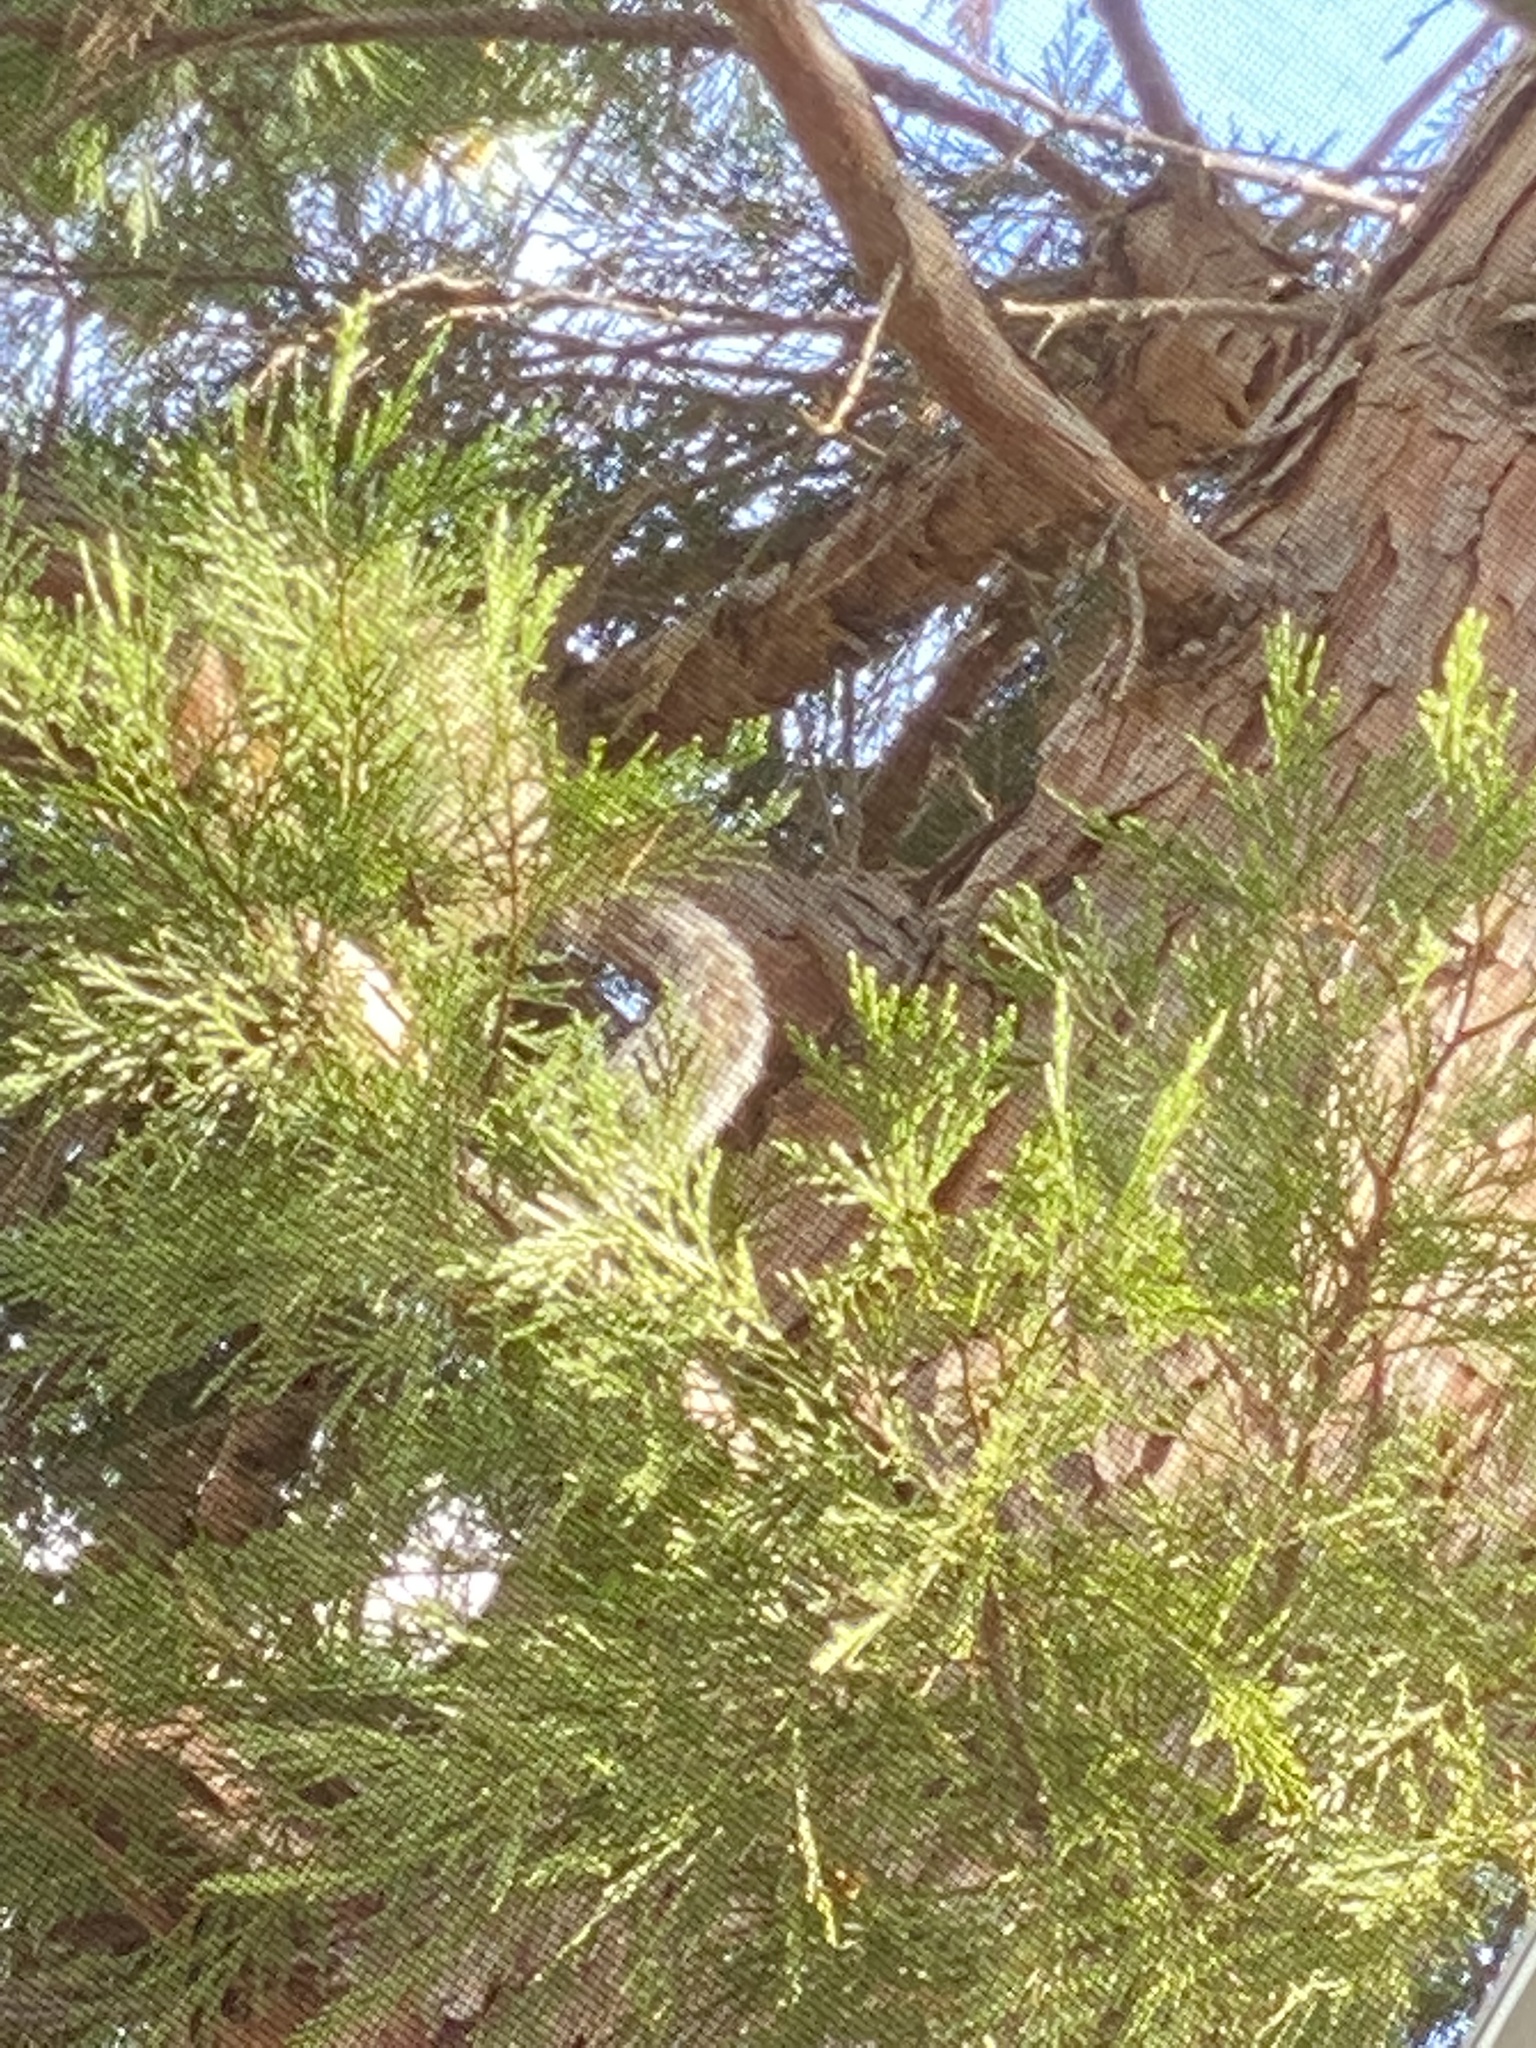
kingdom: Animalia
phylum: Chordata
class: Mammalia
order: Rodentia
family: Sciuridae
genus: Sciurus
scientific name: Sciurus carolinensis
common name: Eastern gray squirrel
